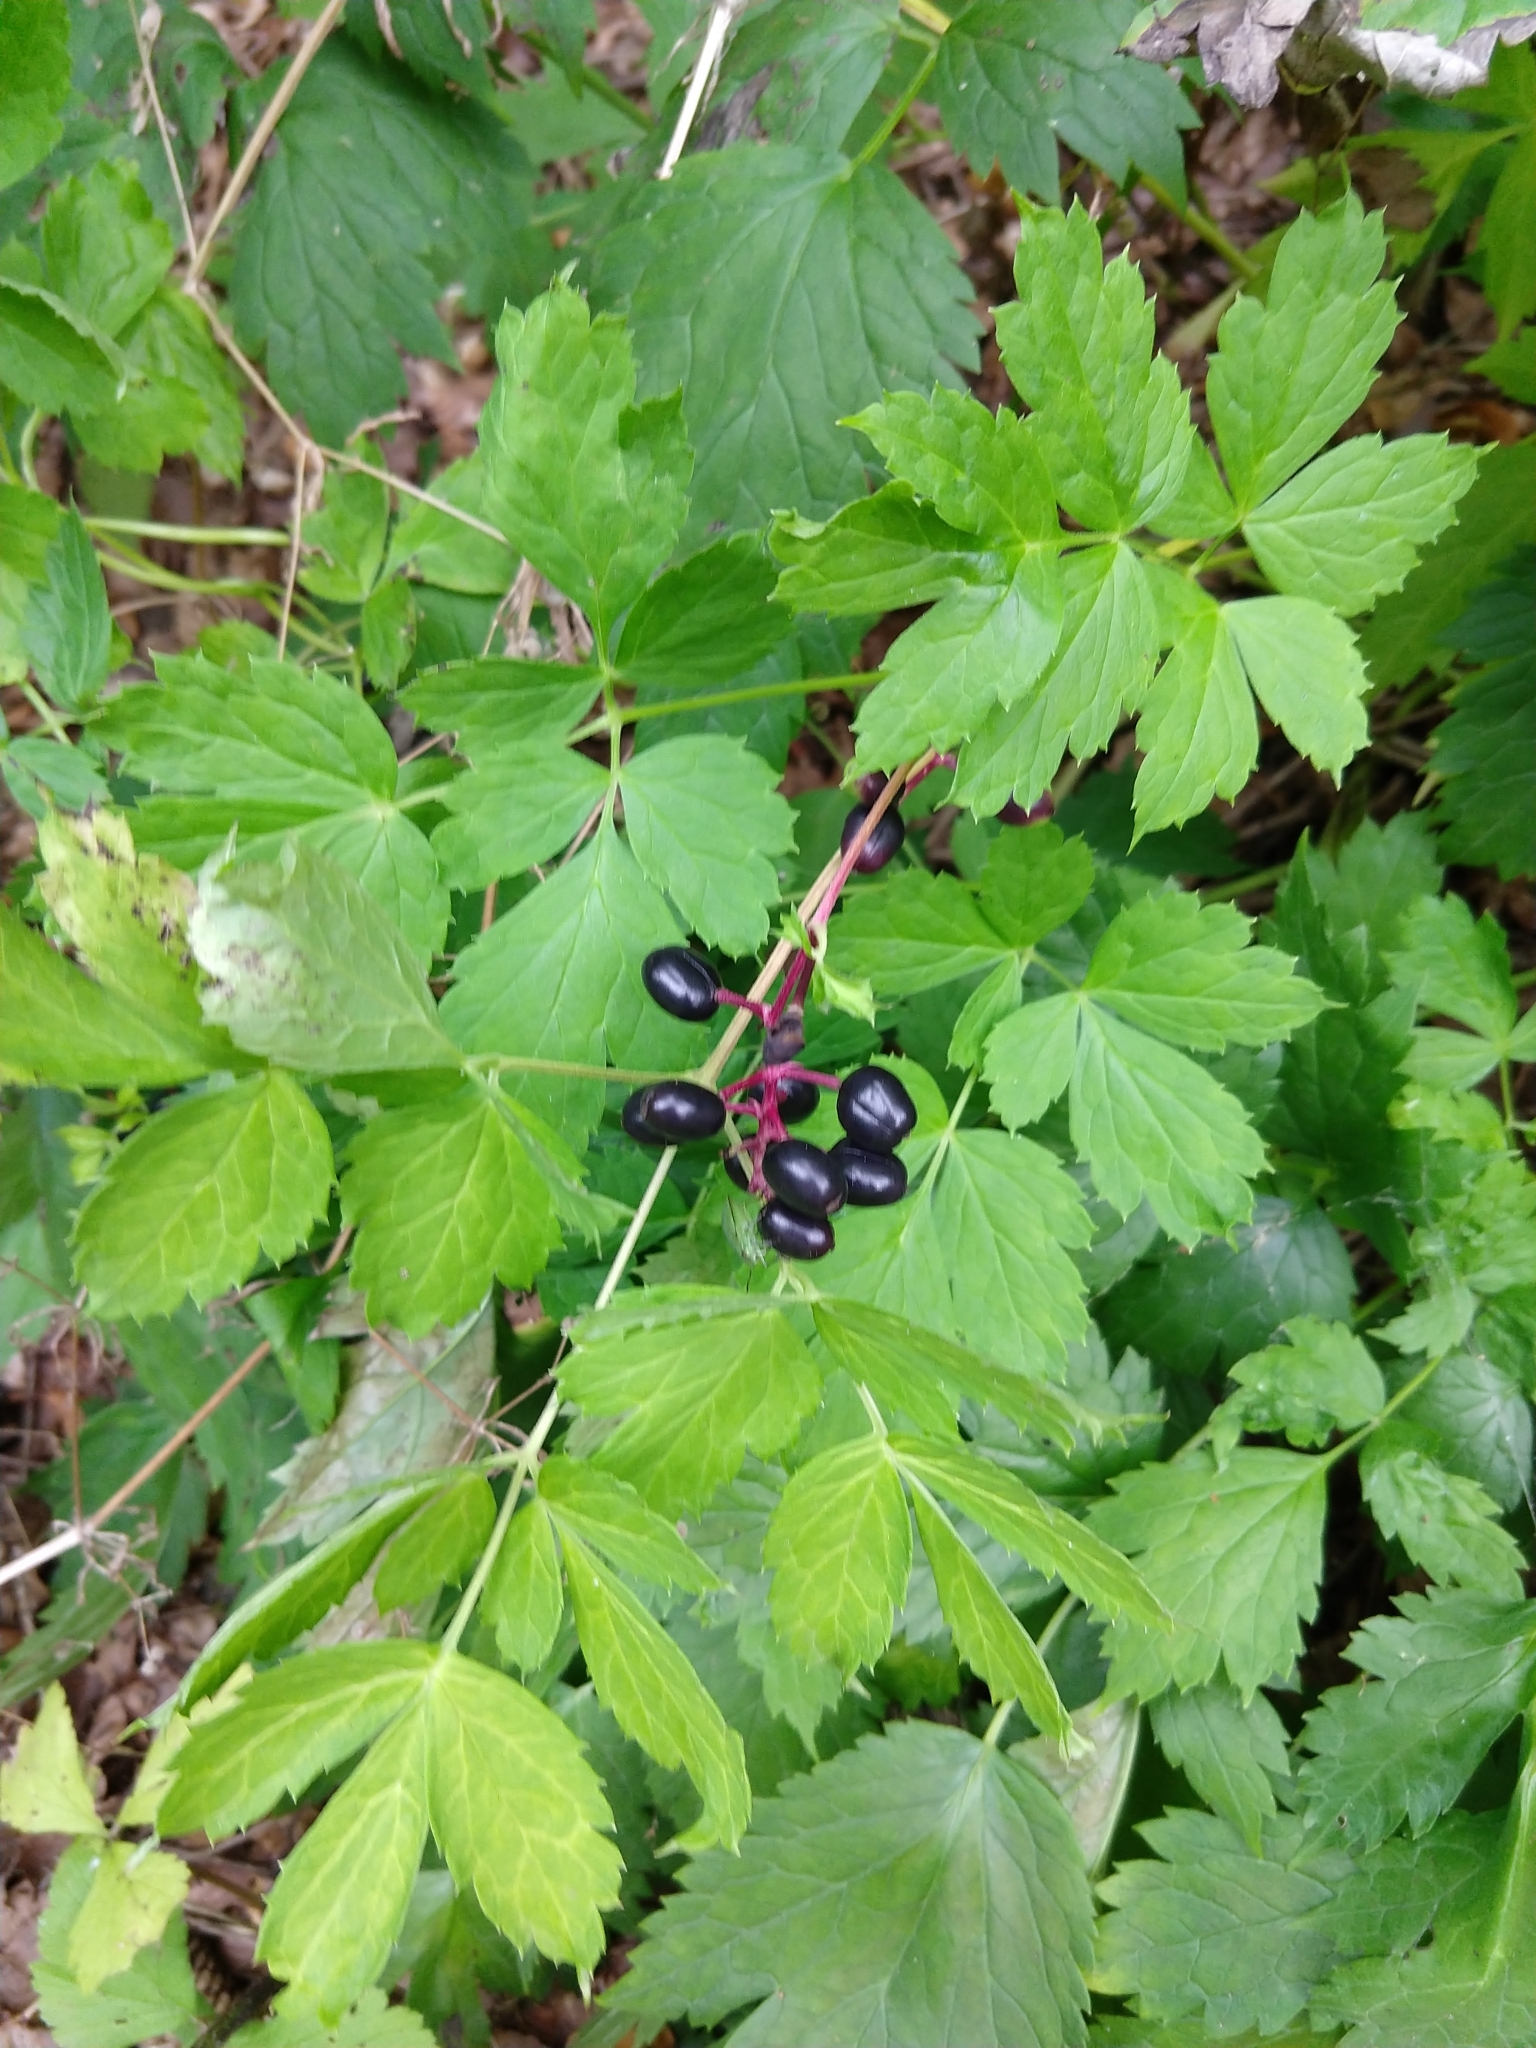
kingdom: Plantae
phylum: Tracheophyta
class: Magnoliopsida
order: Ranunculales
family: Ranunculaceae
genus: Actaea
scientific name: Actaea spicata
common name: Baneberry
